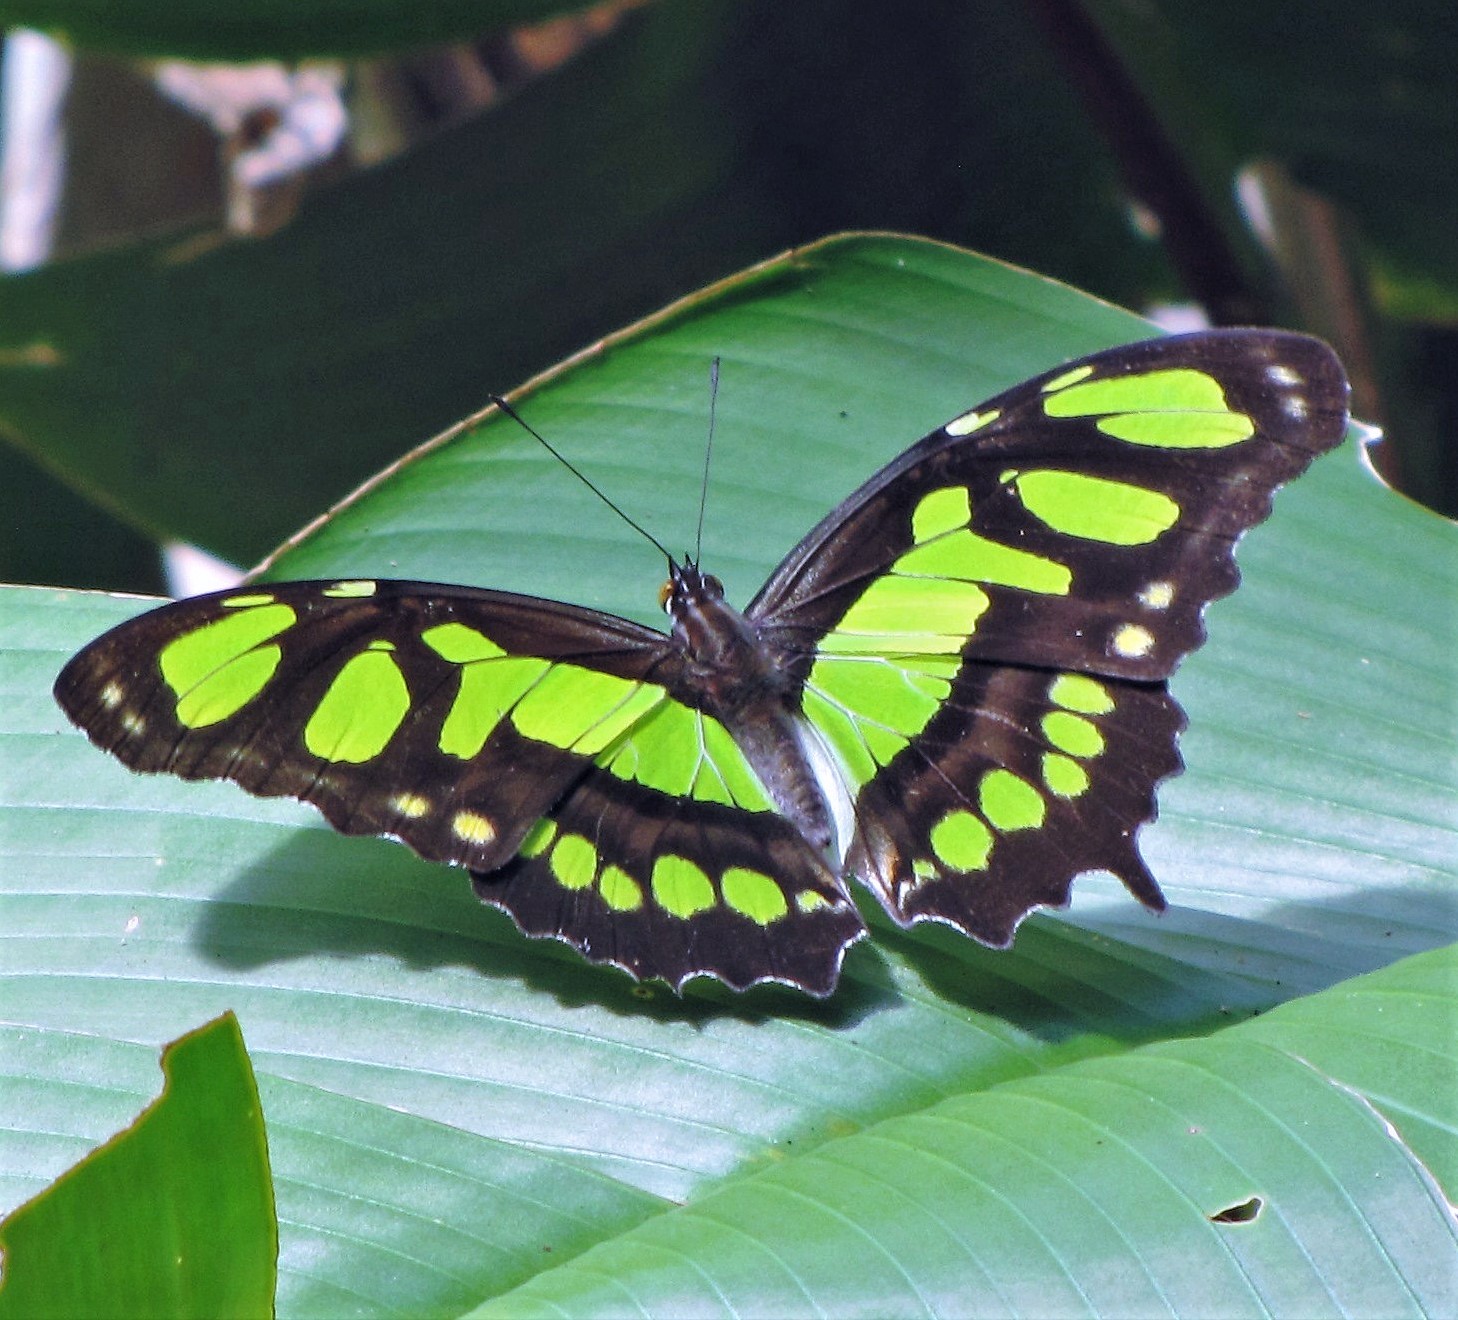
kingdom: Animalia
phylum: Arthropoda
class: Insecta
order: Lepidoptera
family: Nymphalidae
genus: Siproeta
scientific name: Siproeta stelenes
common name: Malachite
